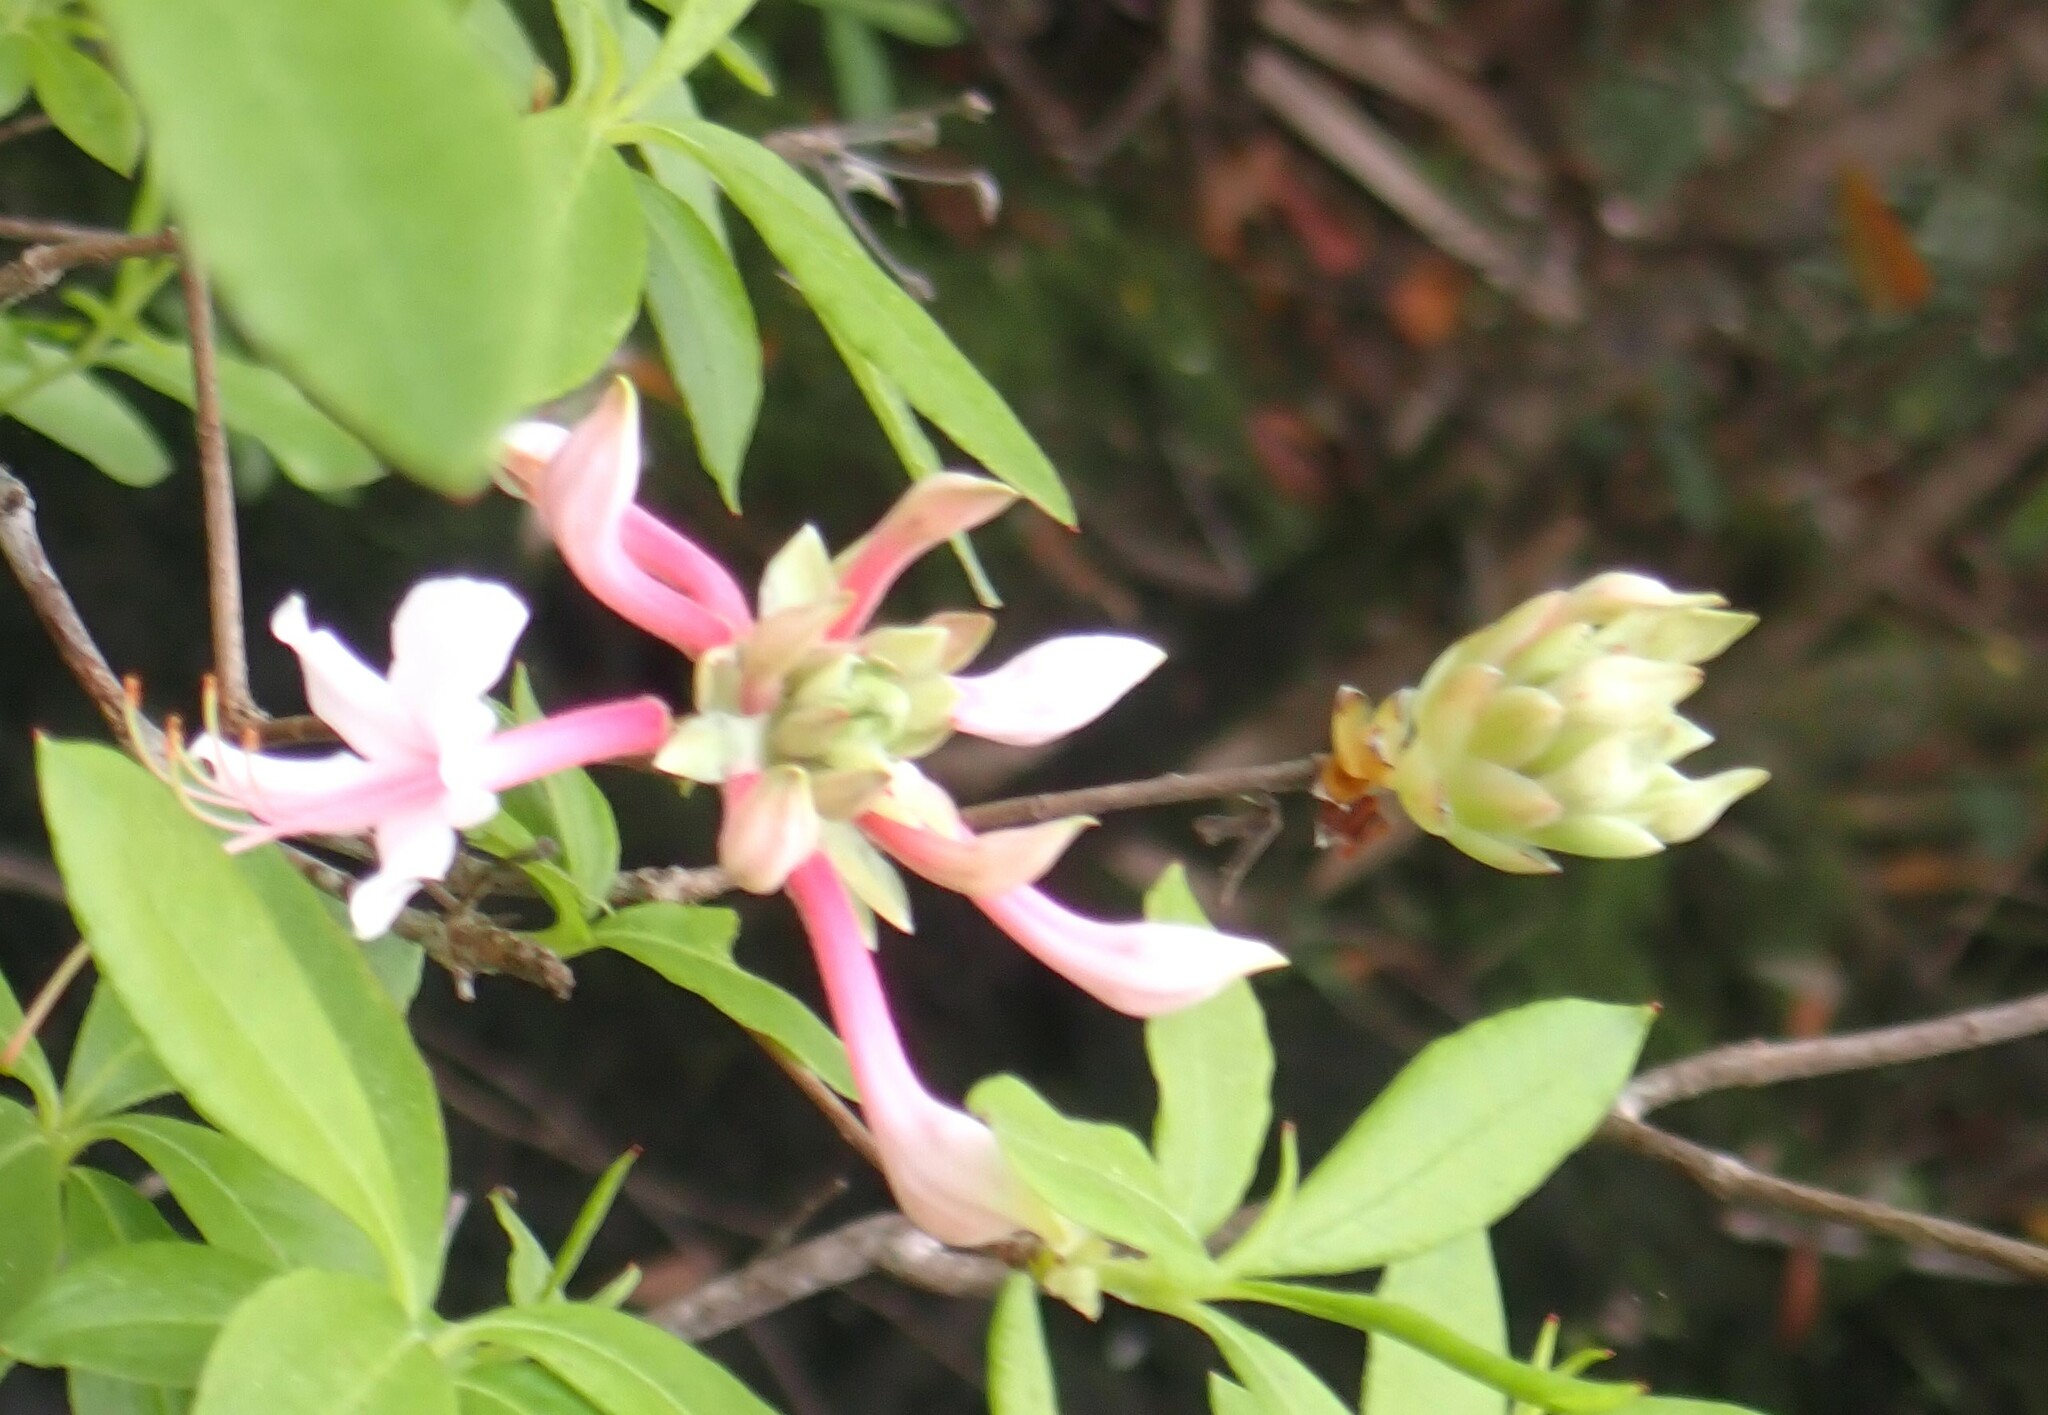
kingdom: Plantae
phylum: Tracheophyta
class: Magnoliopsida
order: Ericales
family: Ericaceae
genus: Rhododendron
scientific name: Rhododendron canescens
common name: Mountain azalea
